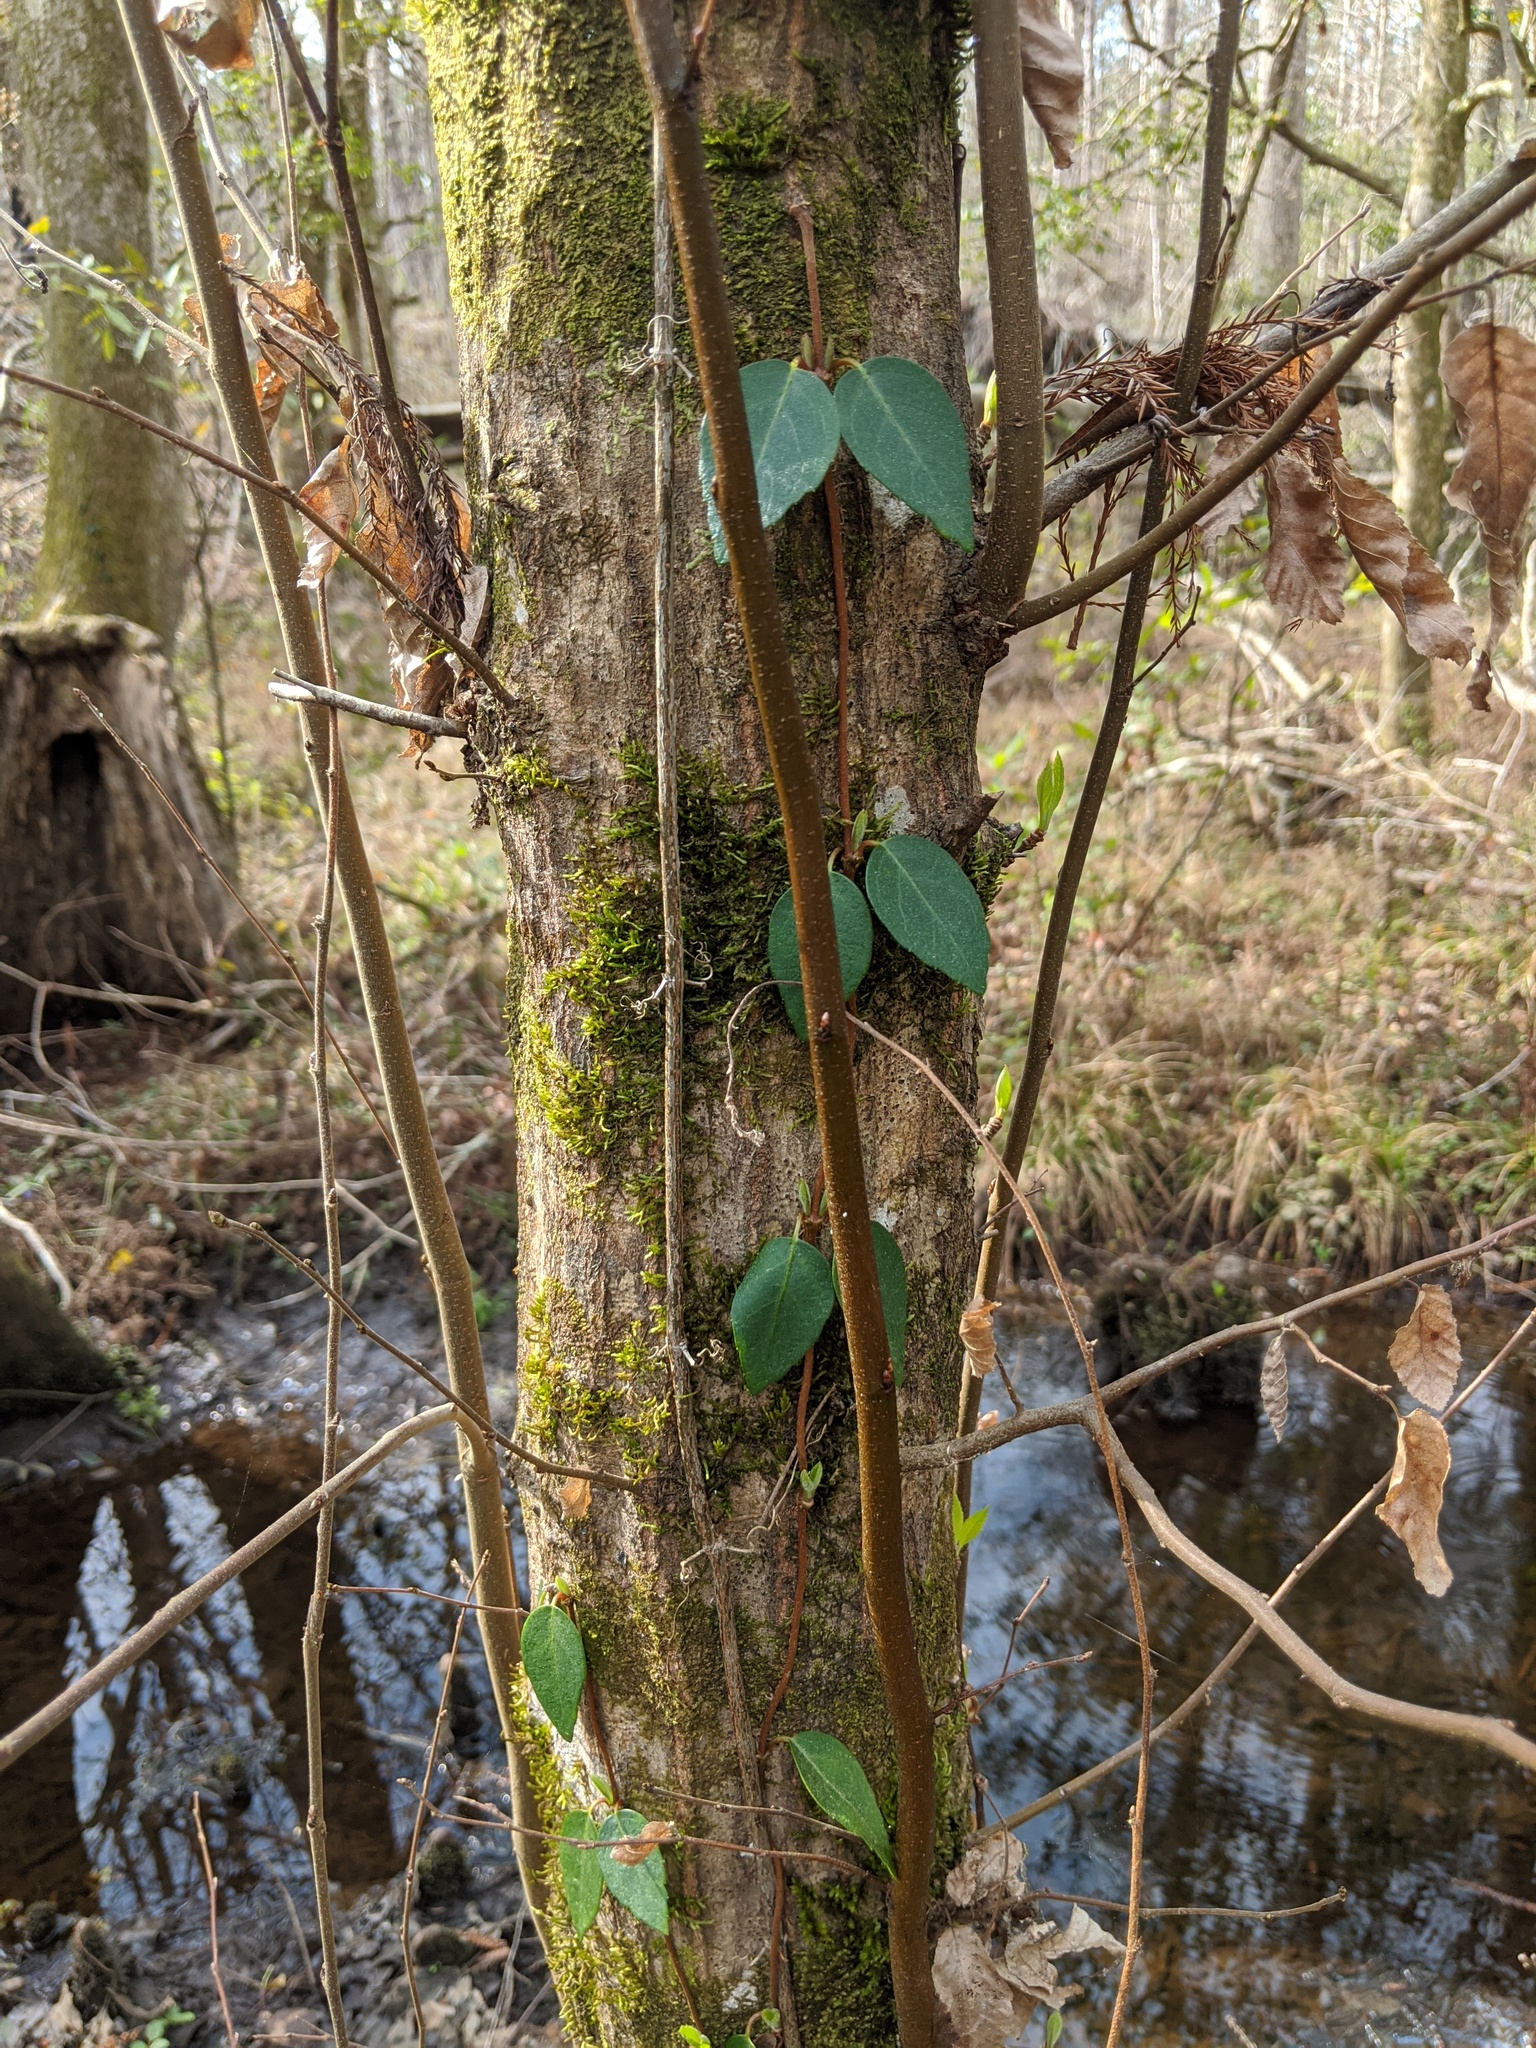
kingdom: Plantae
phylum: Tracheophyta
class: Magnoliopsida
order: Cornales
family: Hydrangeaceae
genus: Hydrangea
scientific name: Hydrangea barbara
